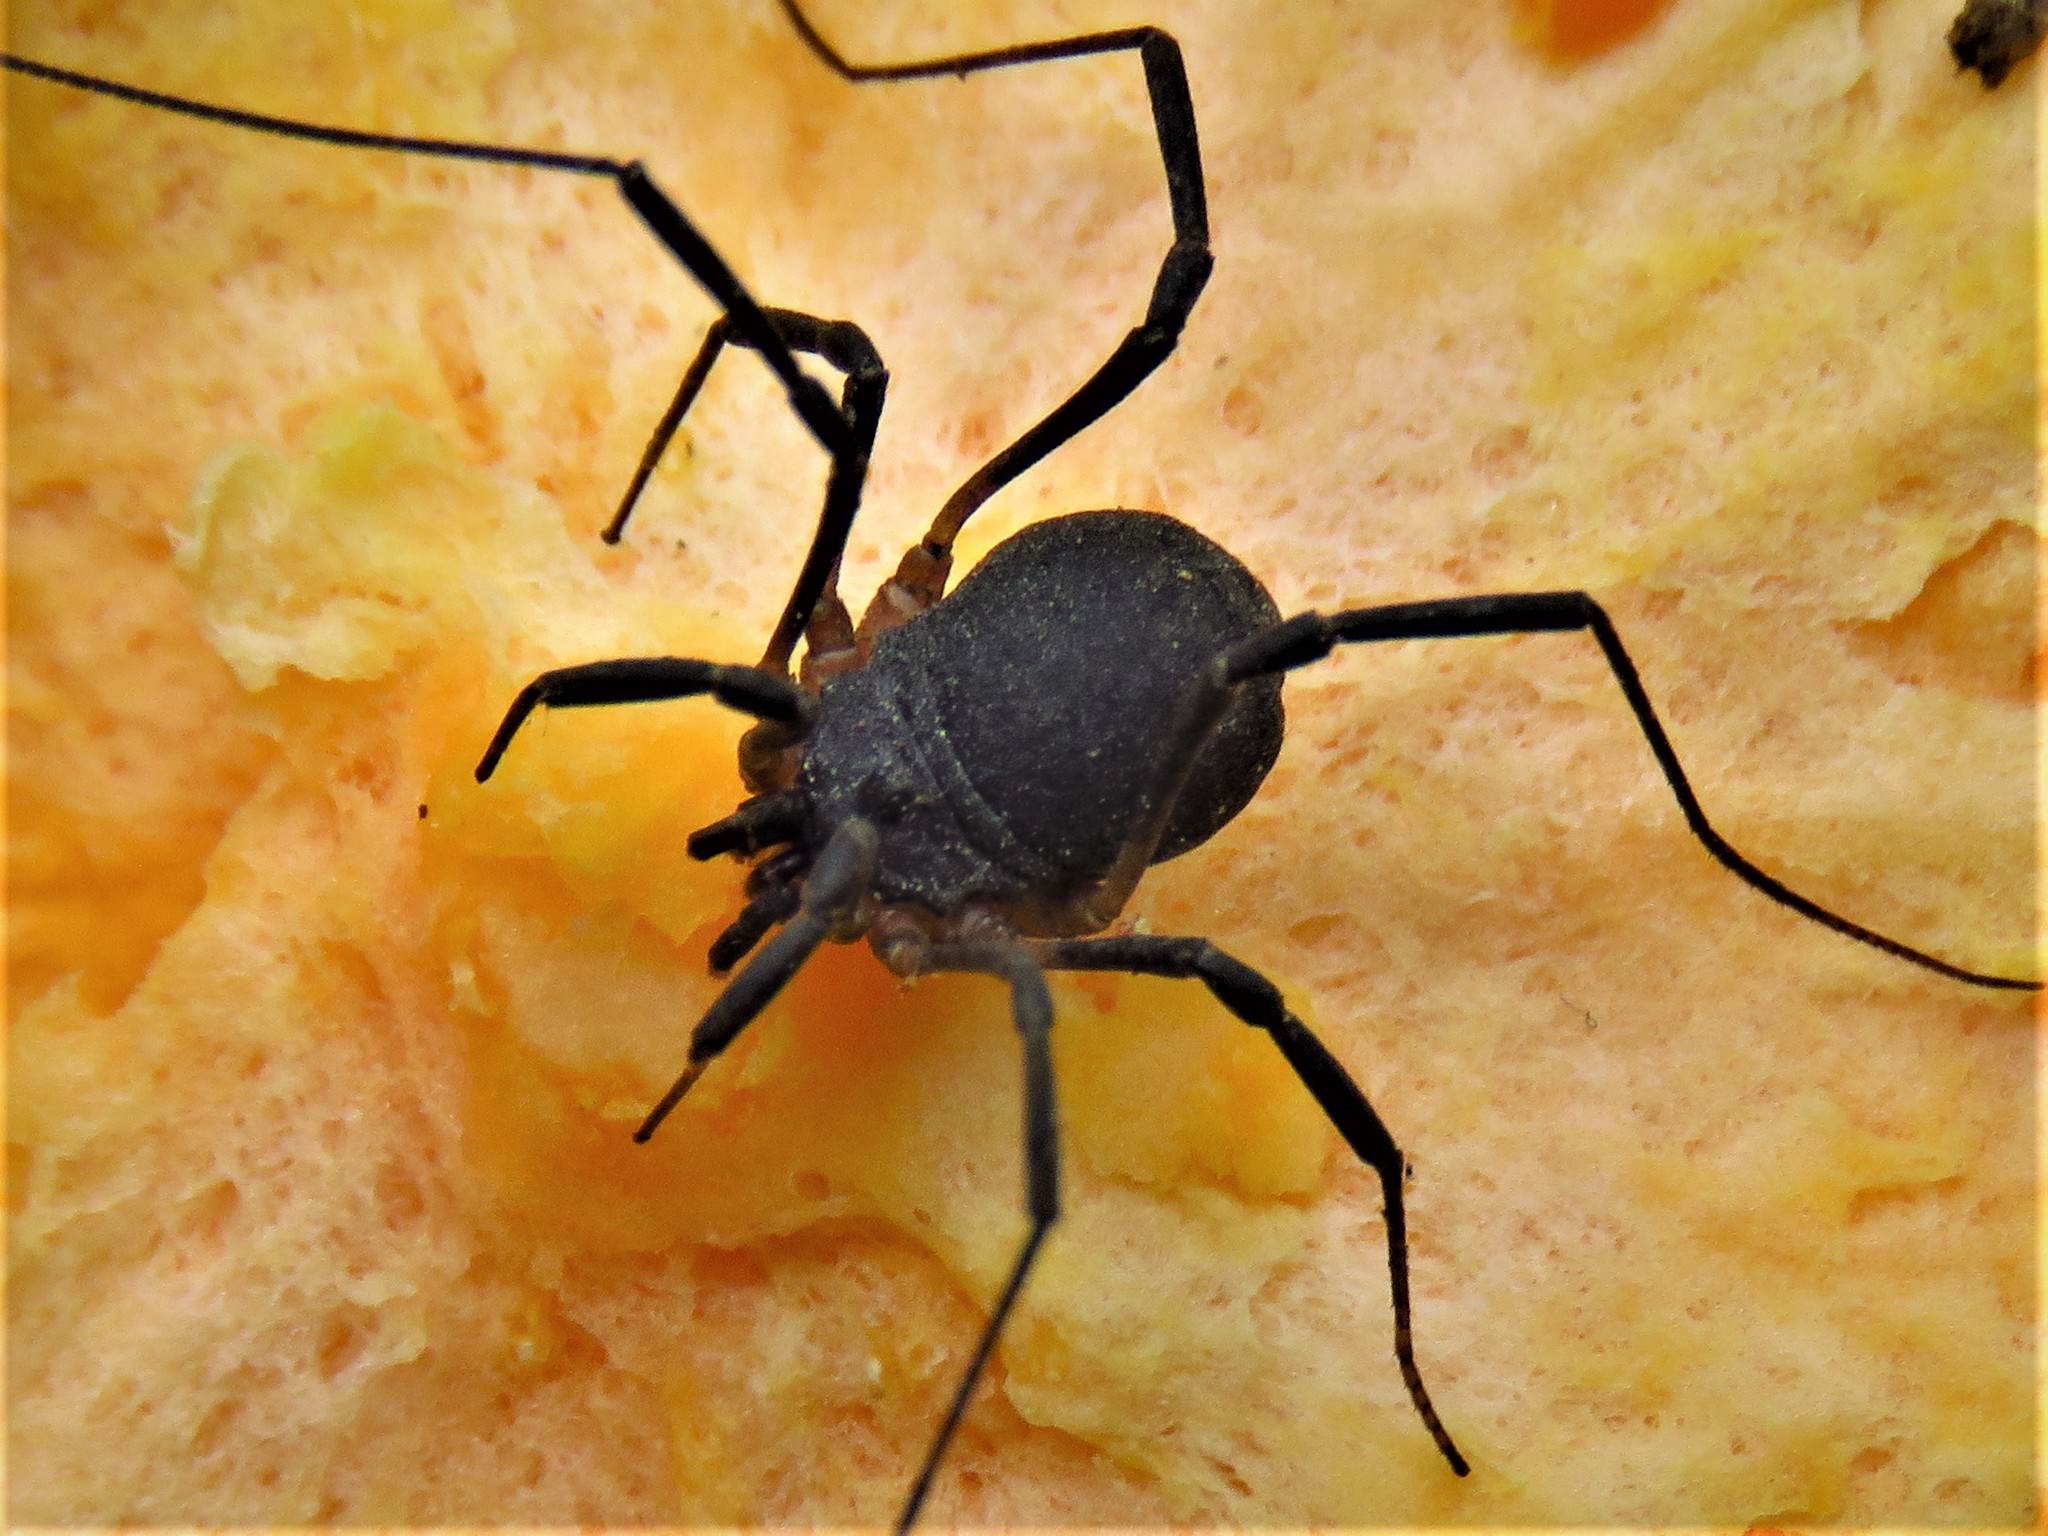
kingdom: Animalia
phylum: Arthropoda
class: Arachnida
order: Opiliones
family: Sclerosomatidae
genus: Eumesosoma
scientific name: Eumesosoma roeweri
